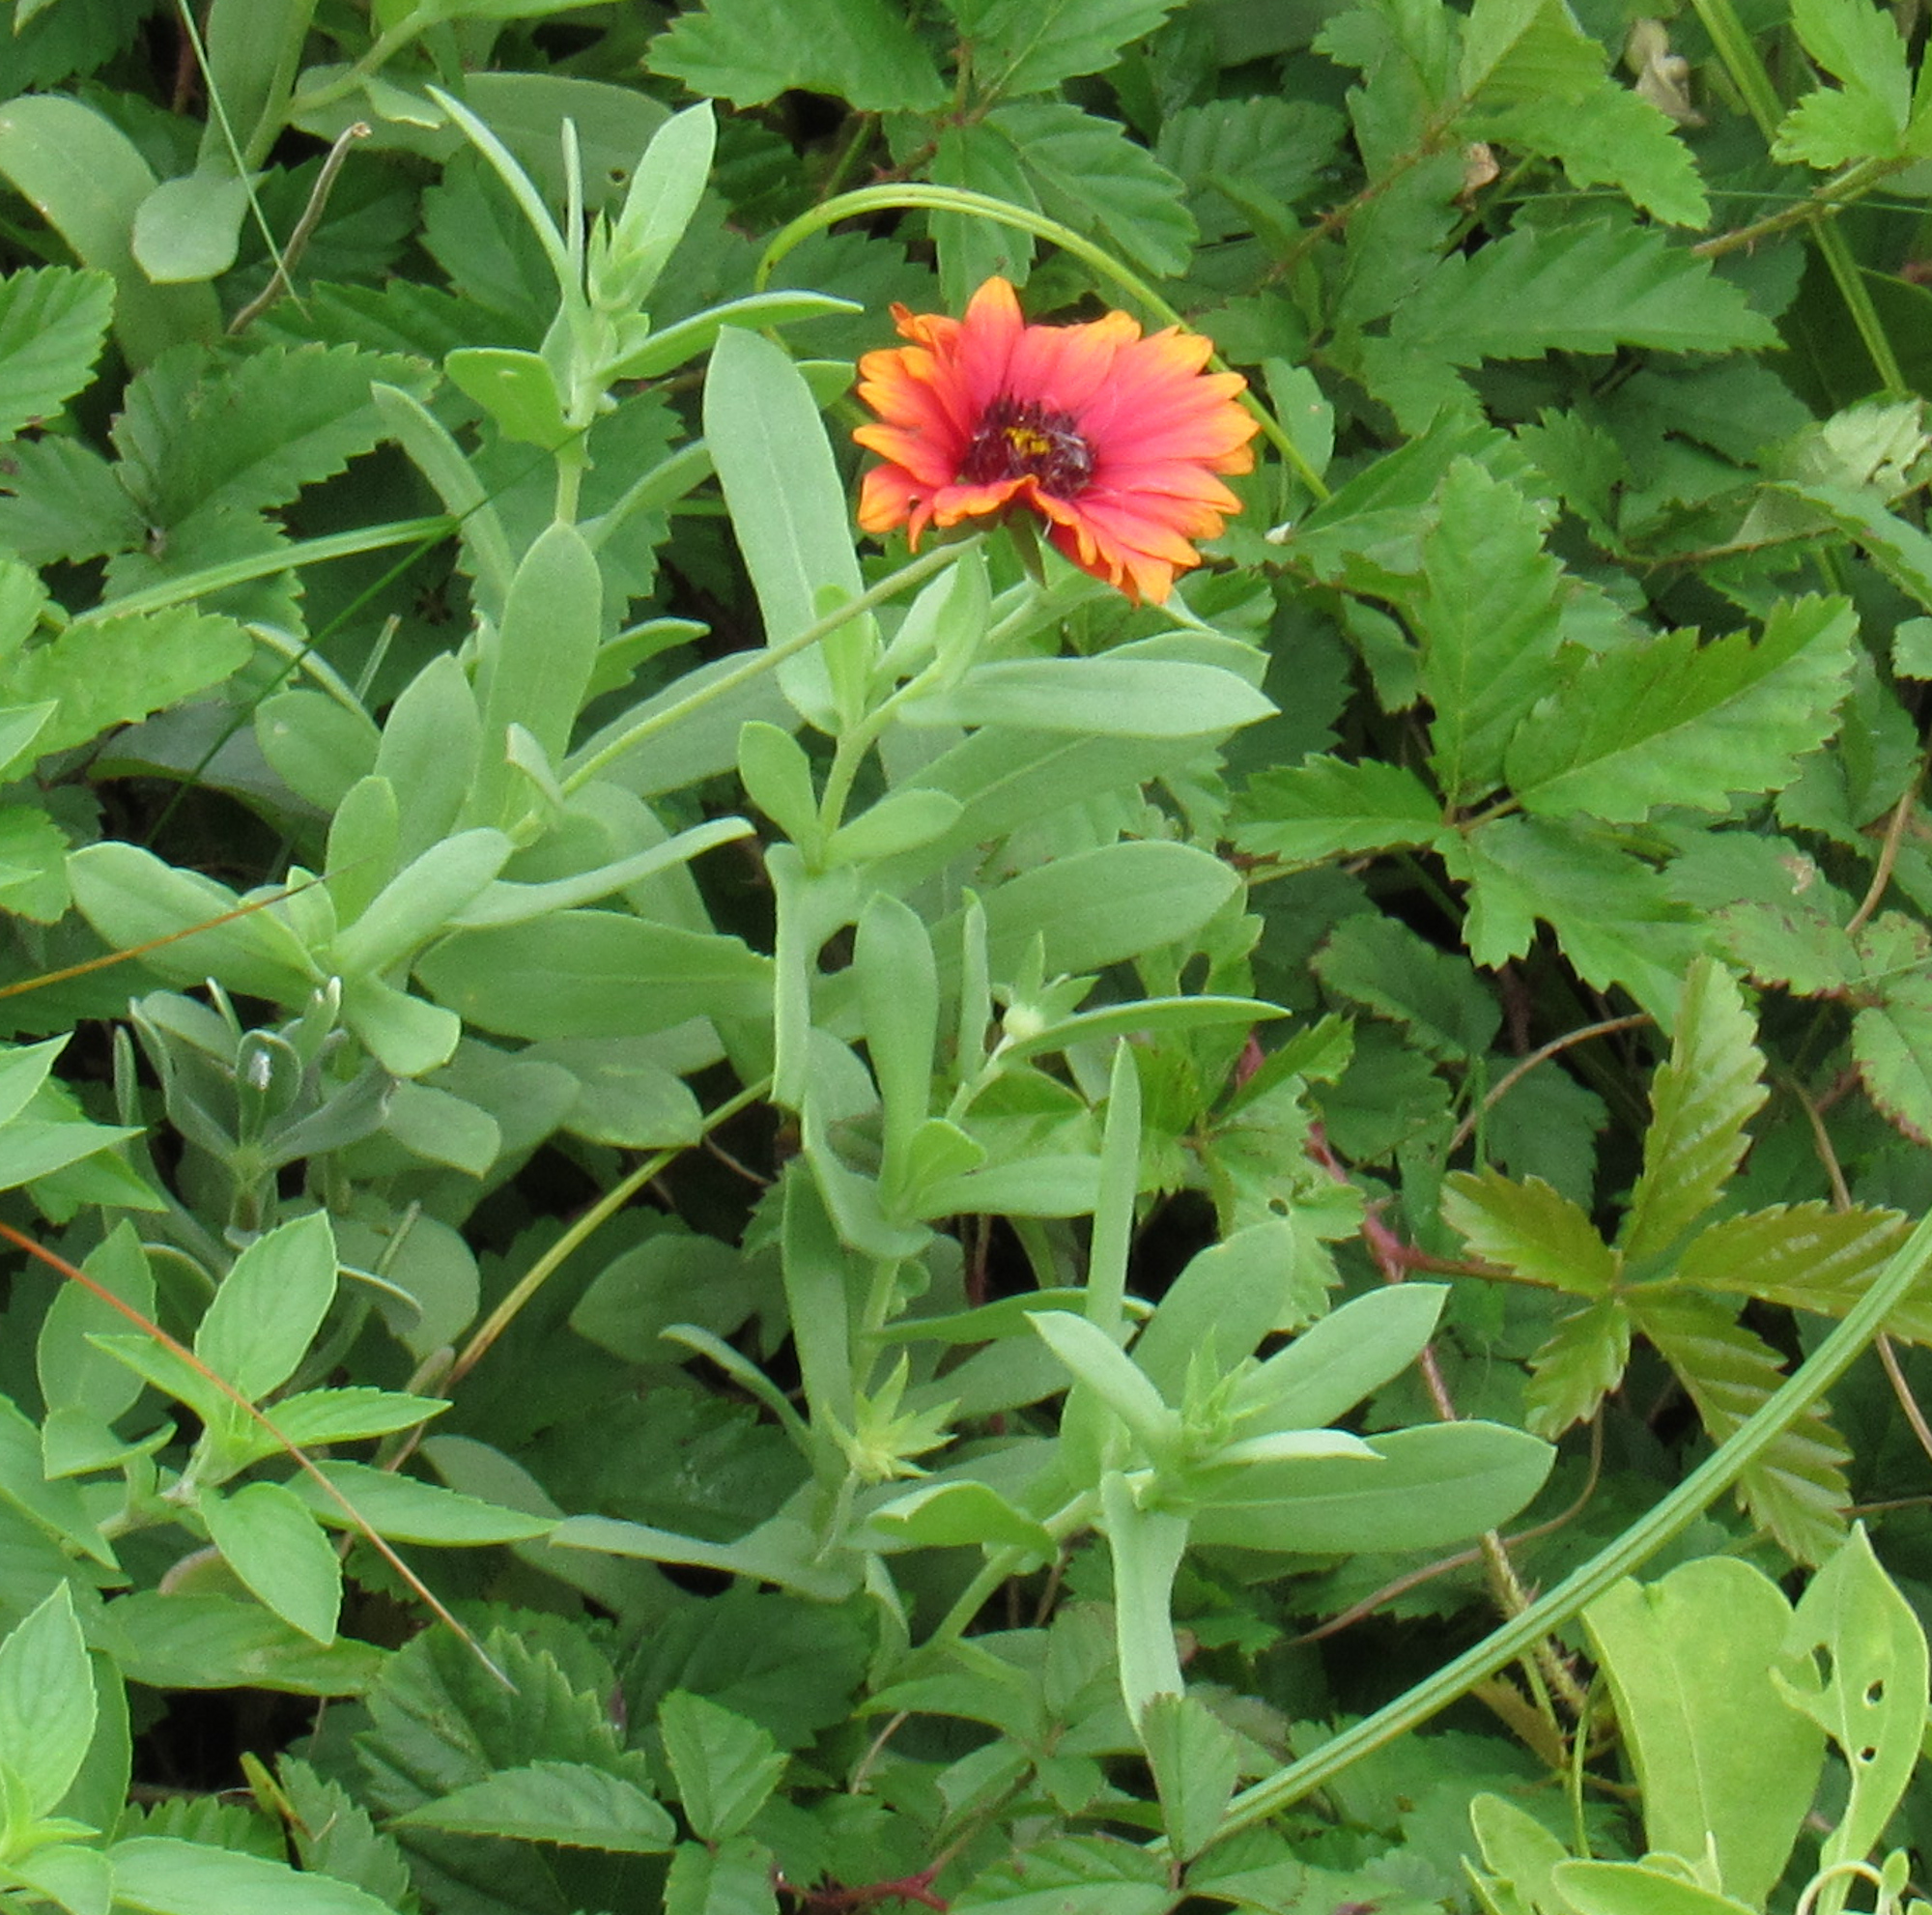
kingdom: Plantae
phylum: Tracheophyta
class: Magnoliopsida
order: Asterales
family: Asteraceae
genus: Gaillardia
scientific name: Gaillardia pulchella
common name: Firewheel
